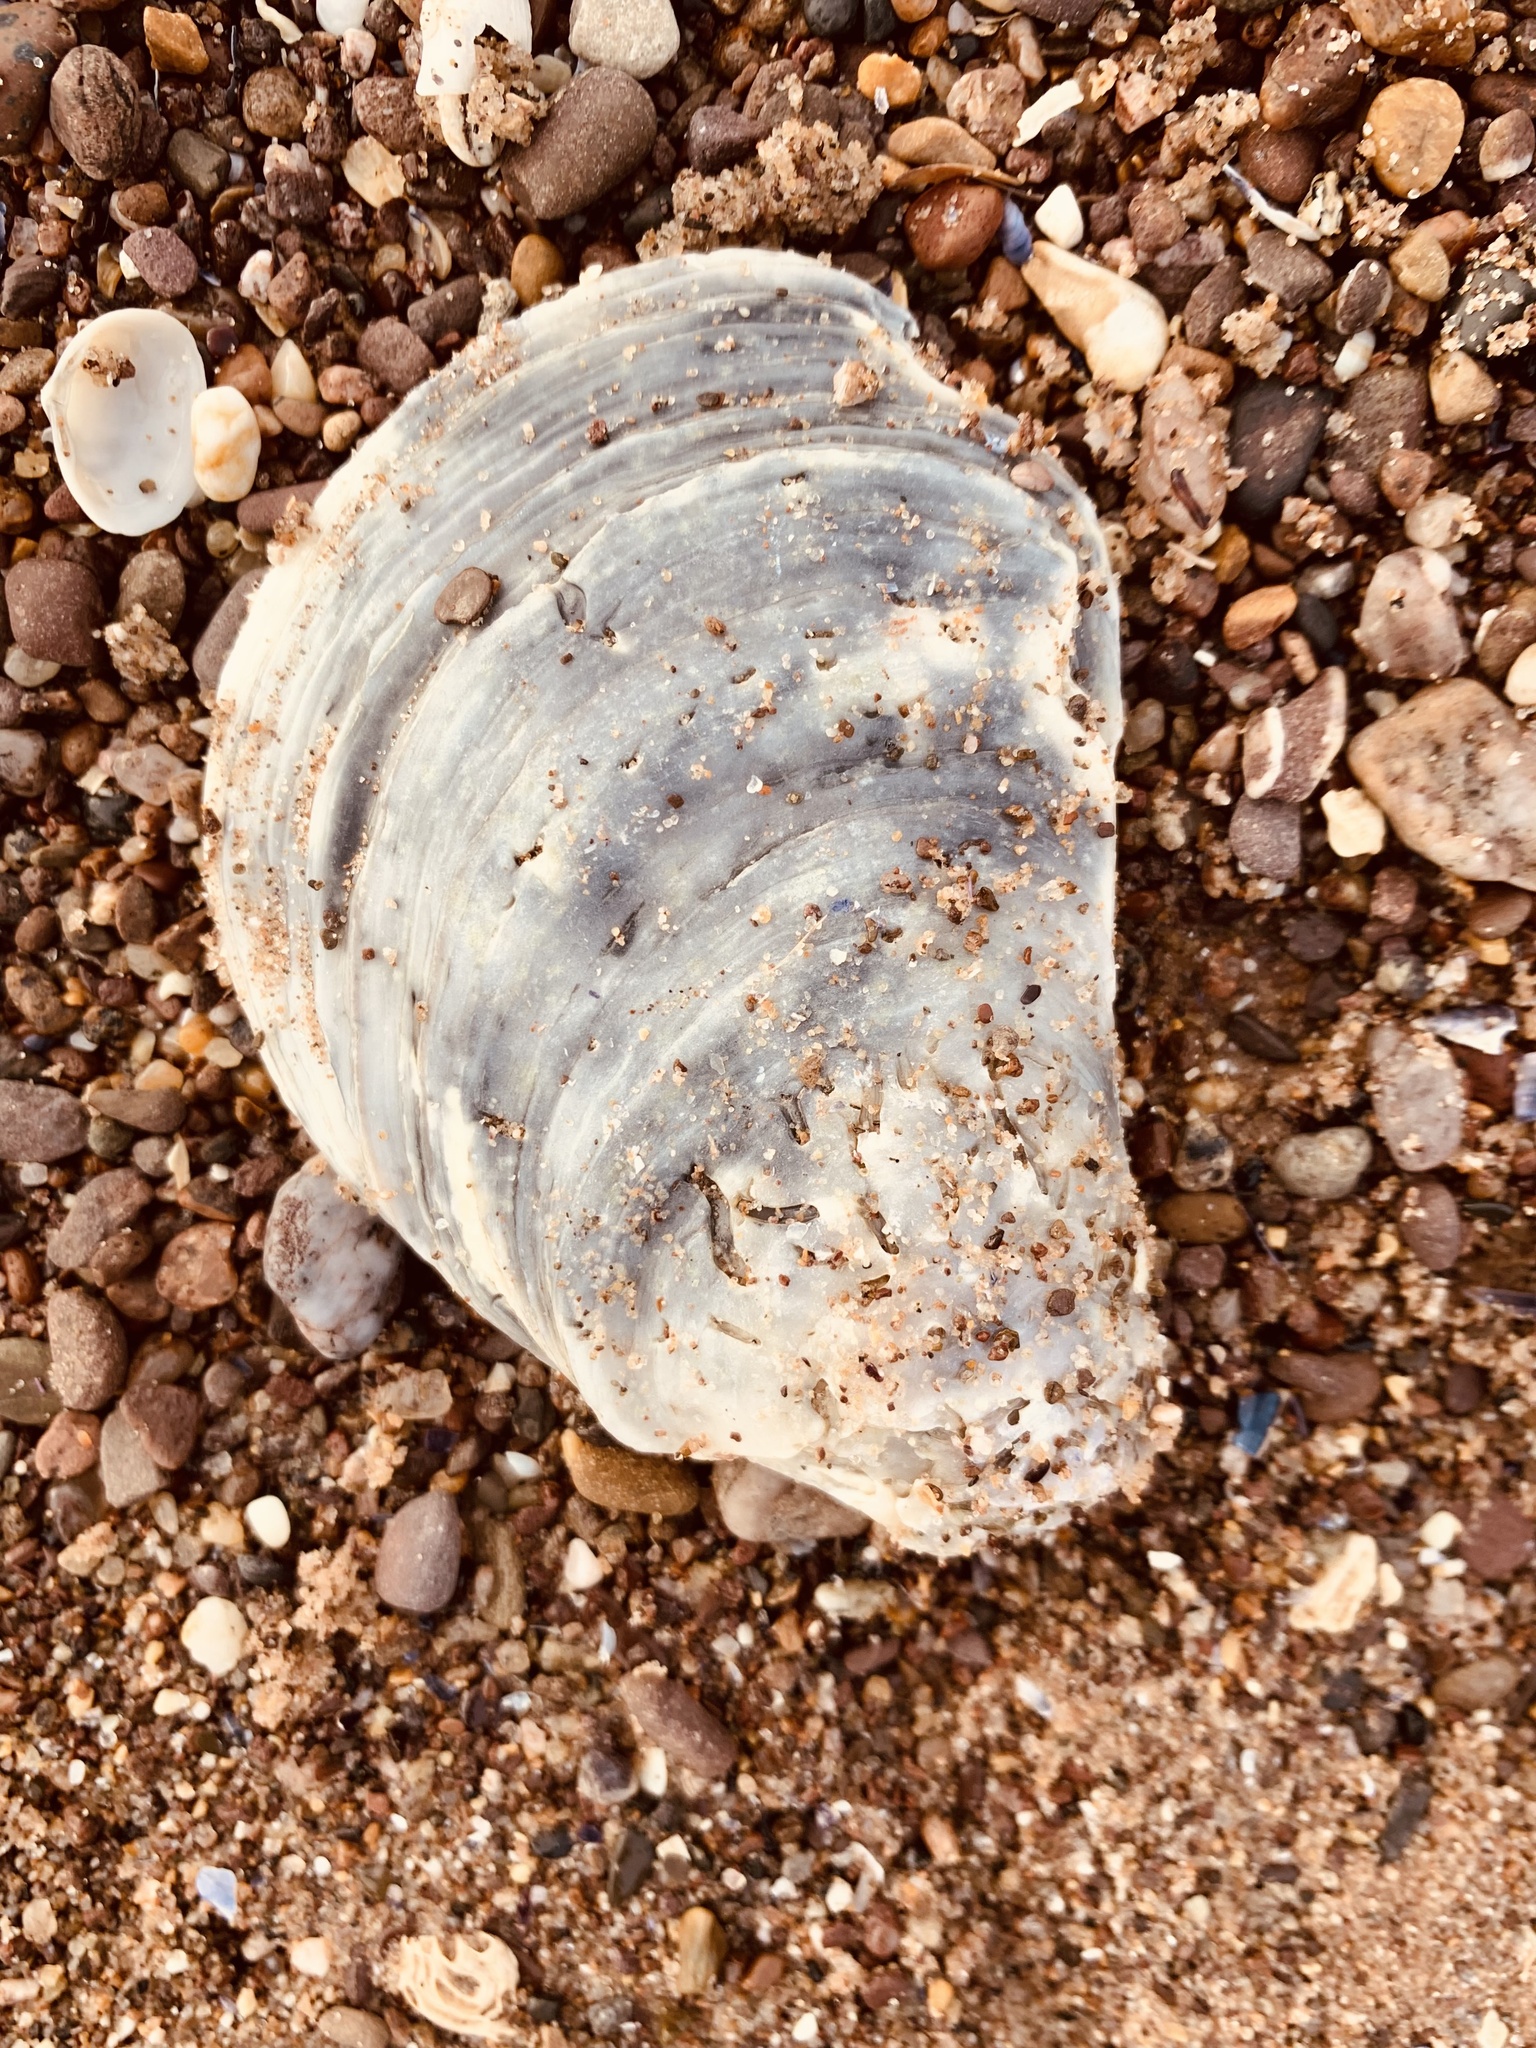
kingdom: Animalia
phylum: Mollusca
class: Bivalvia
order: Ostreida
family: Ostreidae
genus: Ostrea
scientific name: Ostrea edulis
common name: Flat oyster
